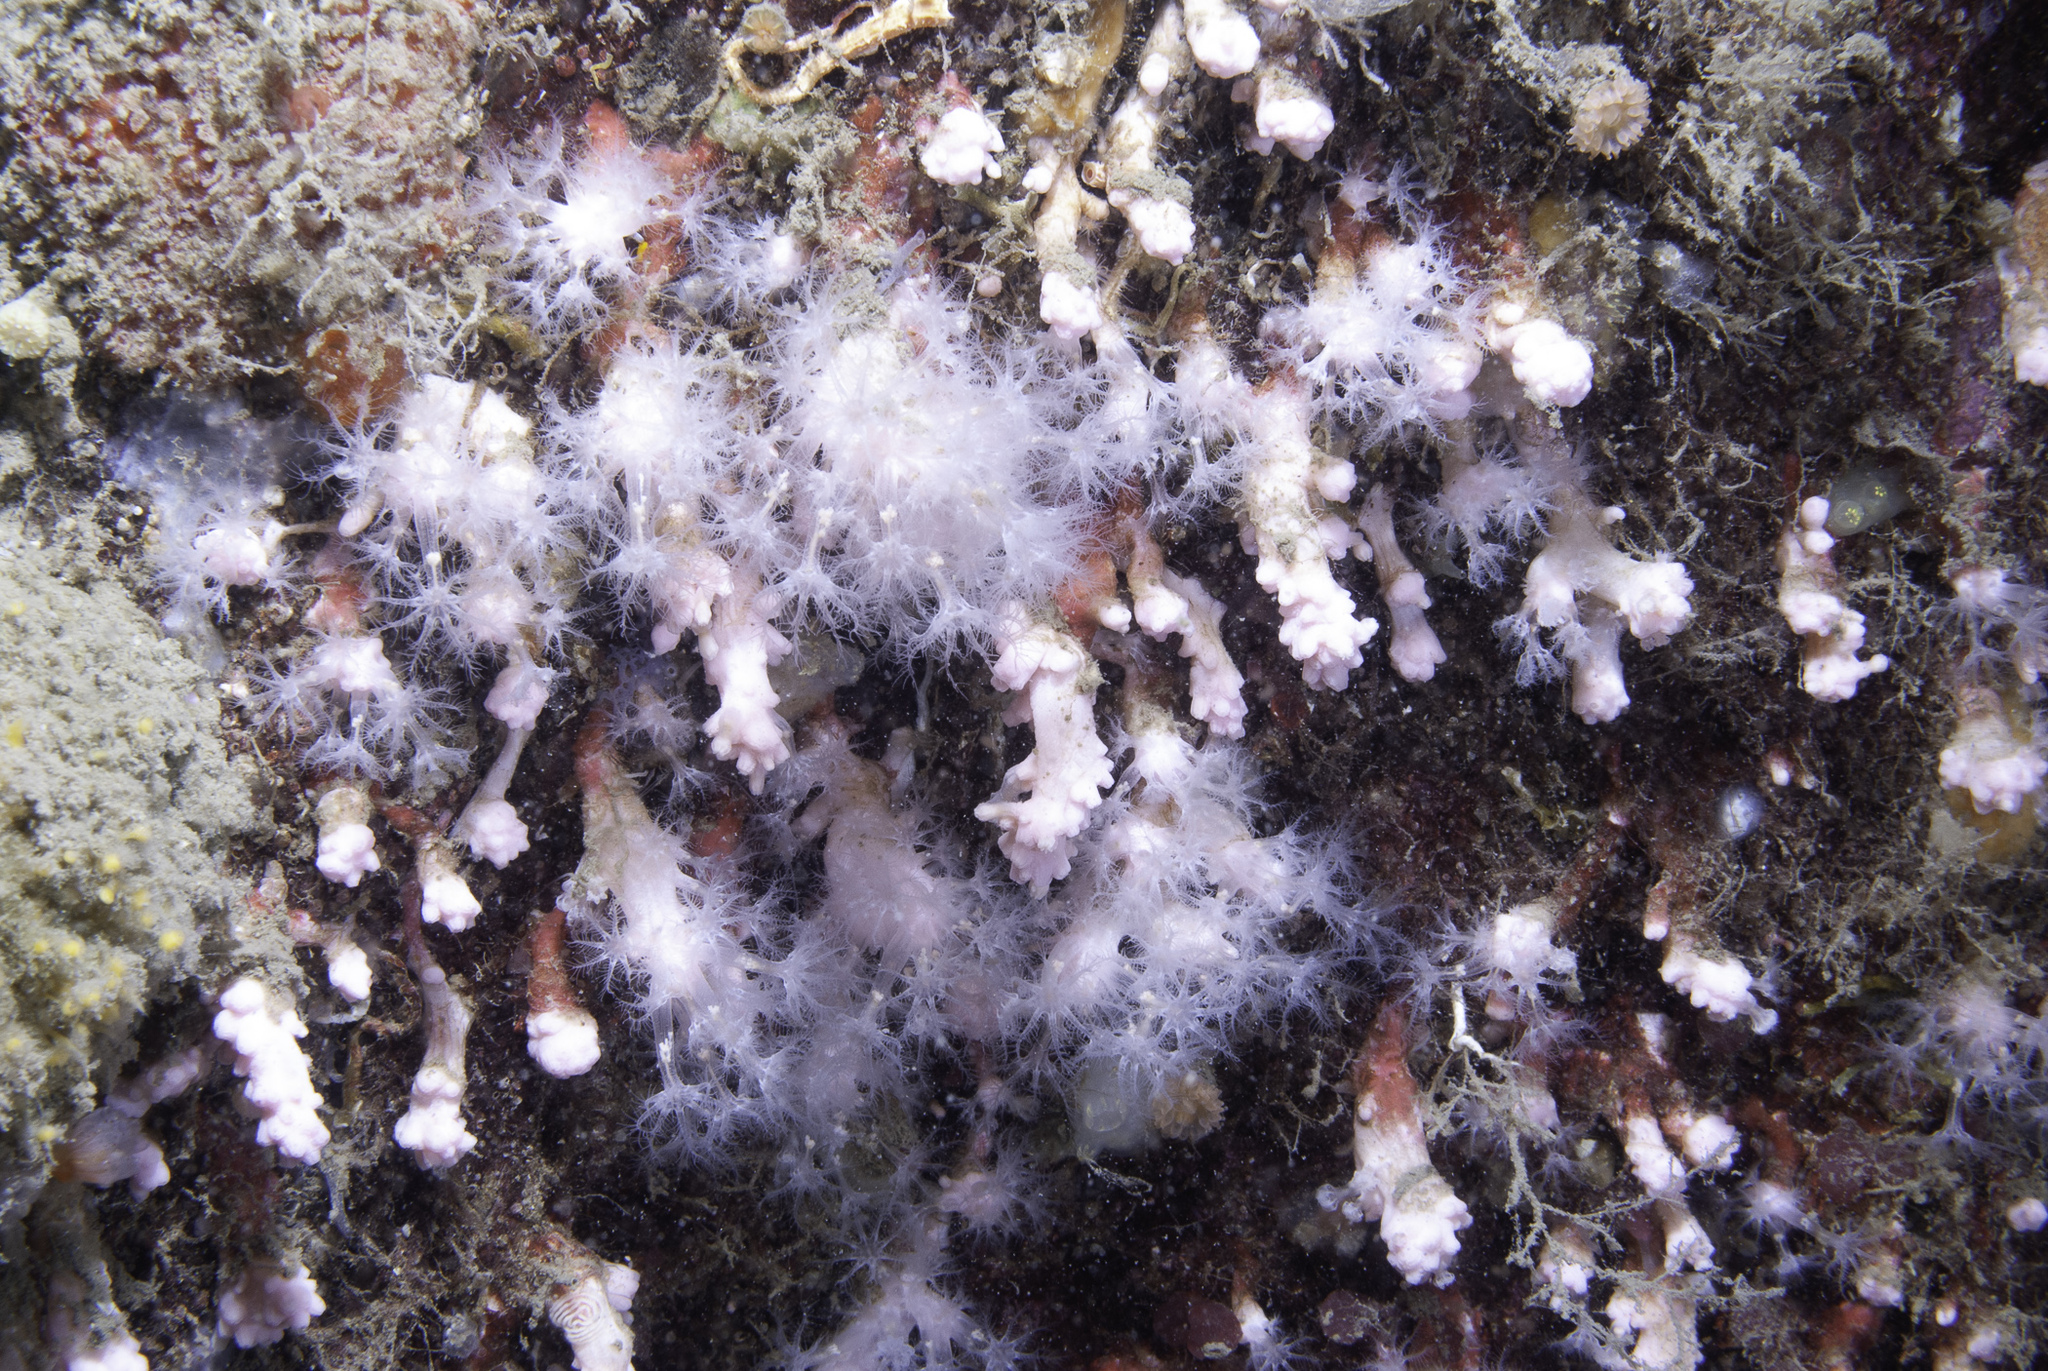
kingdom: Animalia
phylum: Cnidaria
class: Anthozoa
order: Malacalcyonacea
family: Alcyoniidae
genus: Alcyonium
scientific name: Alcyonium hibernicum
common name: Pink sea fingers
